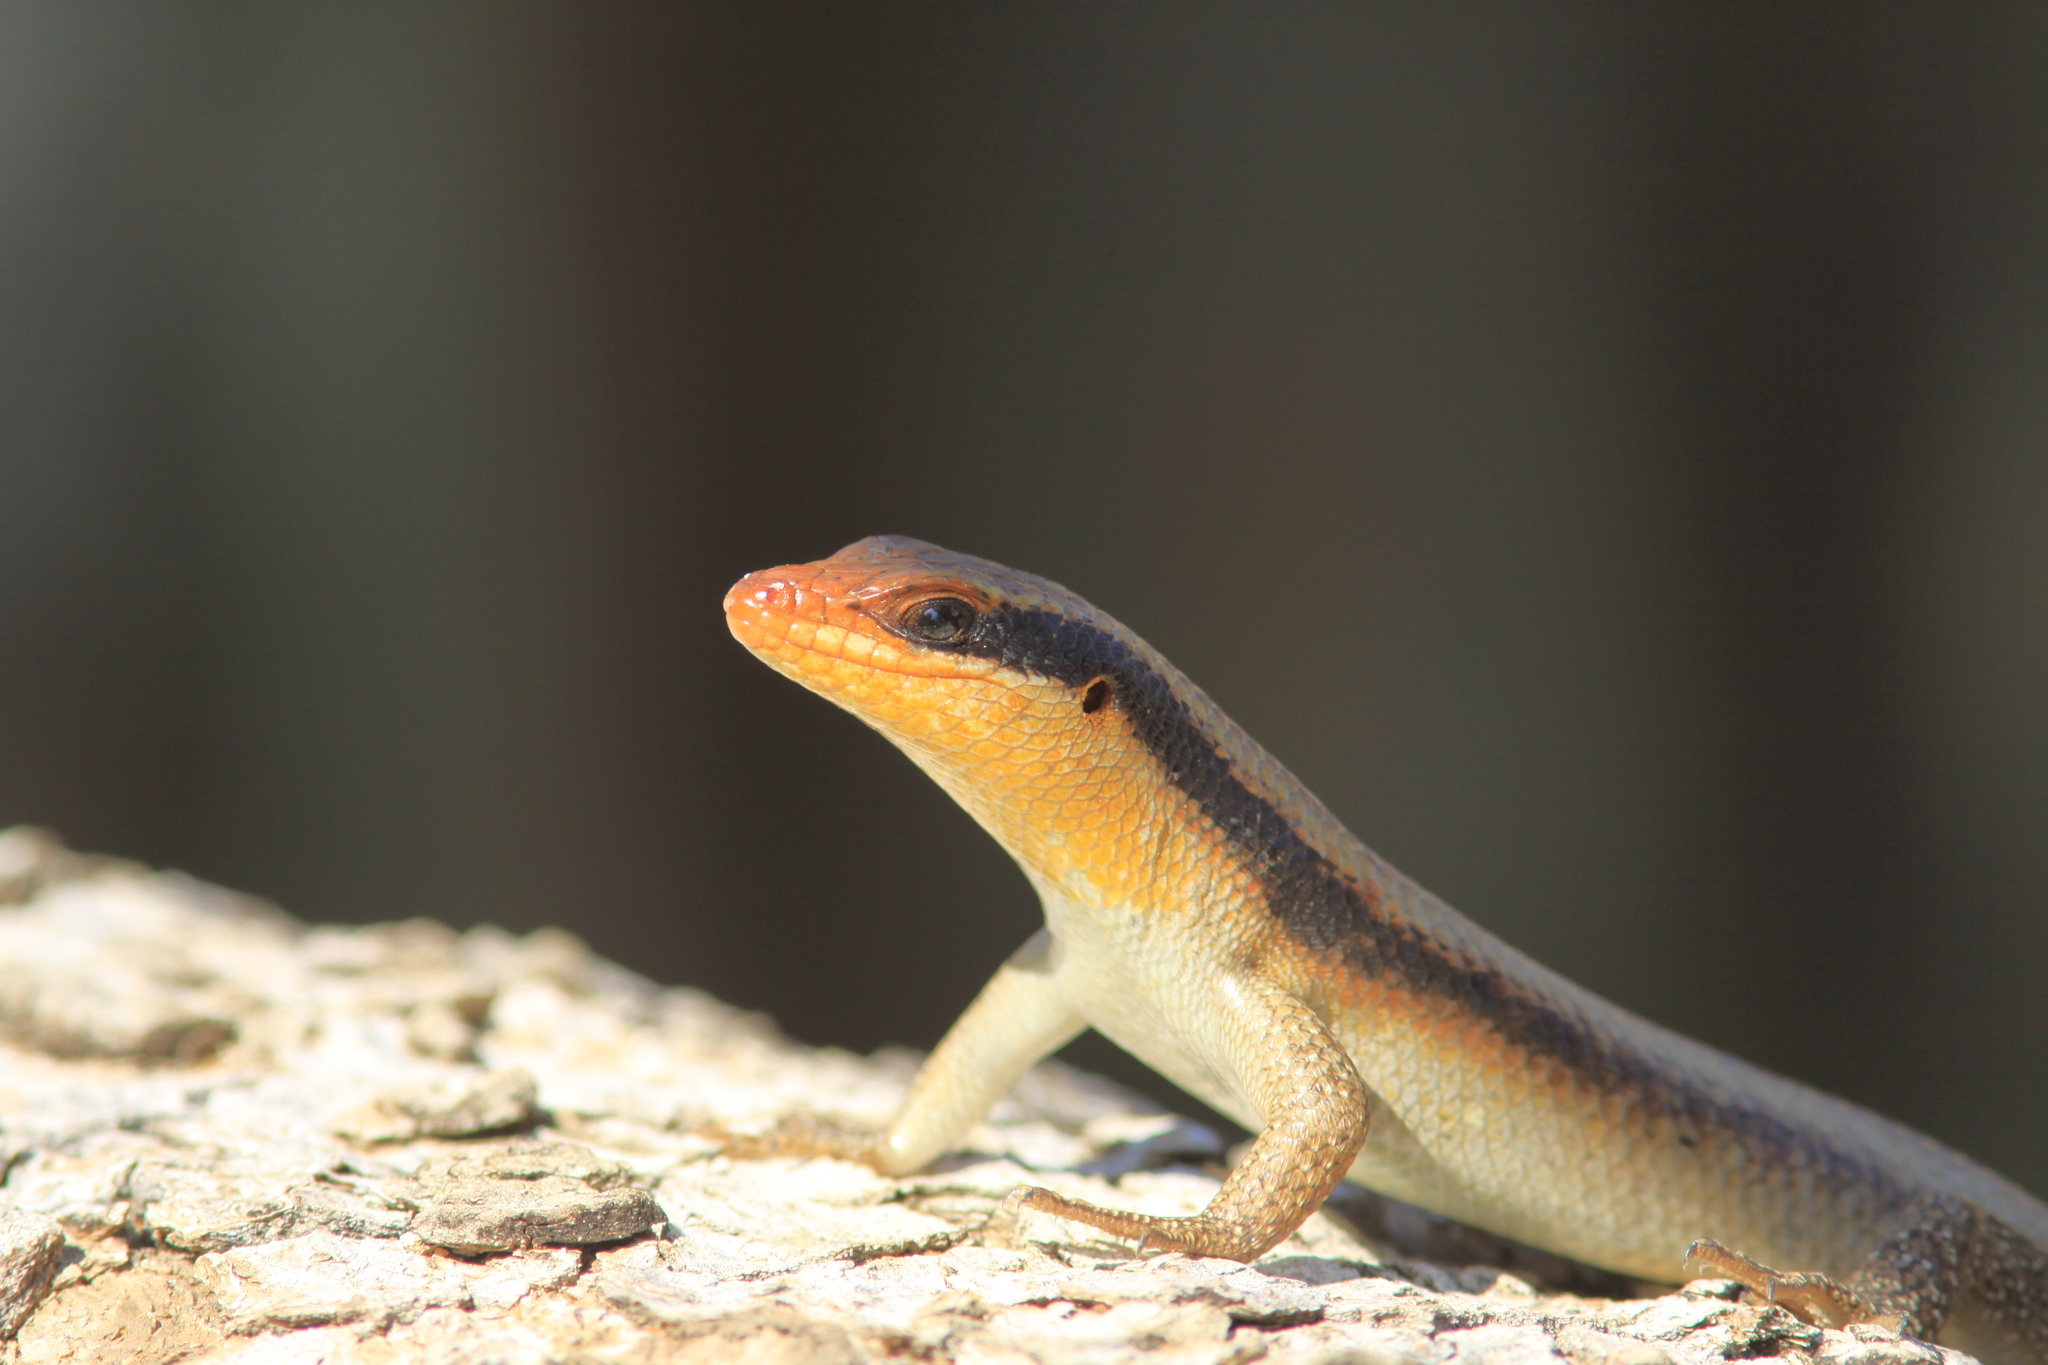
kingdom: Animalia
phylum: Chordata
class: Squamata
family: Scincidae
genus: Trachylepis
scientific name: Trachylepis wahlbergii
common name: Wahlberg’s striped skink
